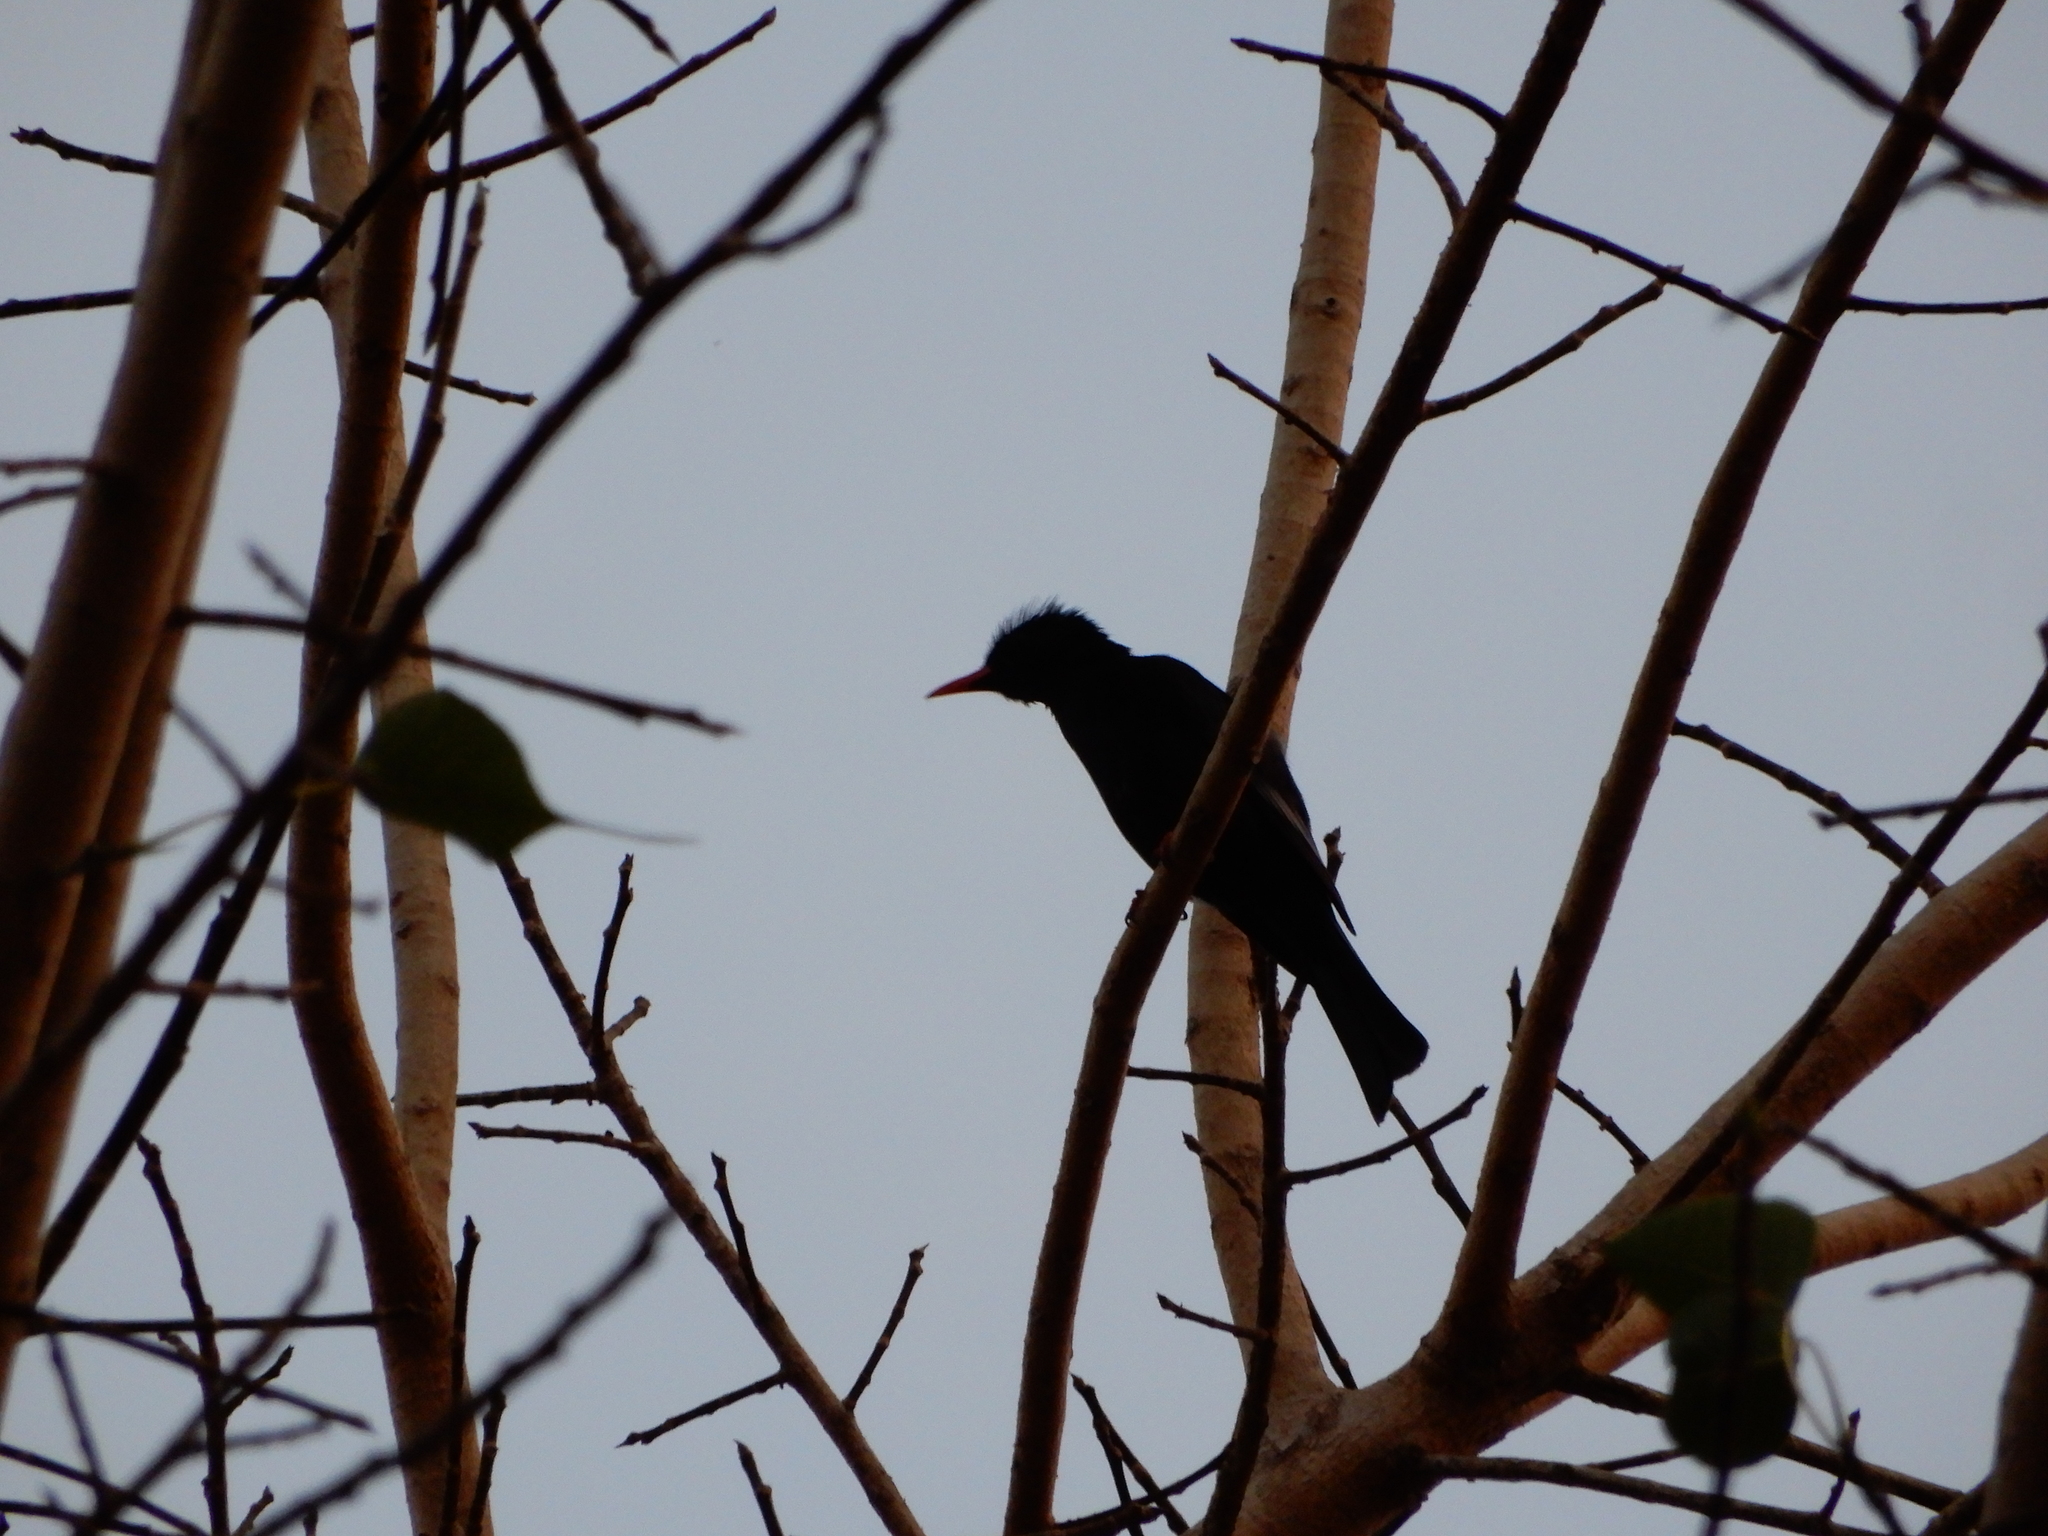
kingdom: Animalia
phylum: Chordata
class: Aves
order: Passeriformes
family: Pycnonotidae
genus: Hypsipetes
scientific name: Hypsipetes leucocephalus
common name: Black bulbul
